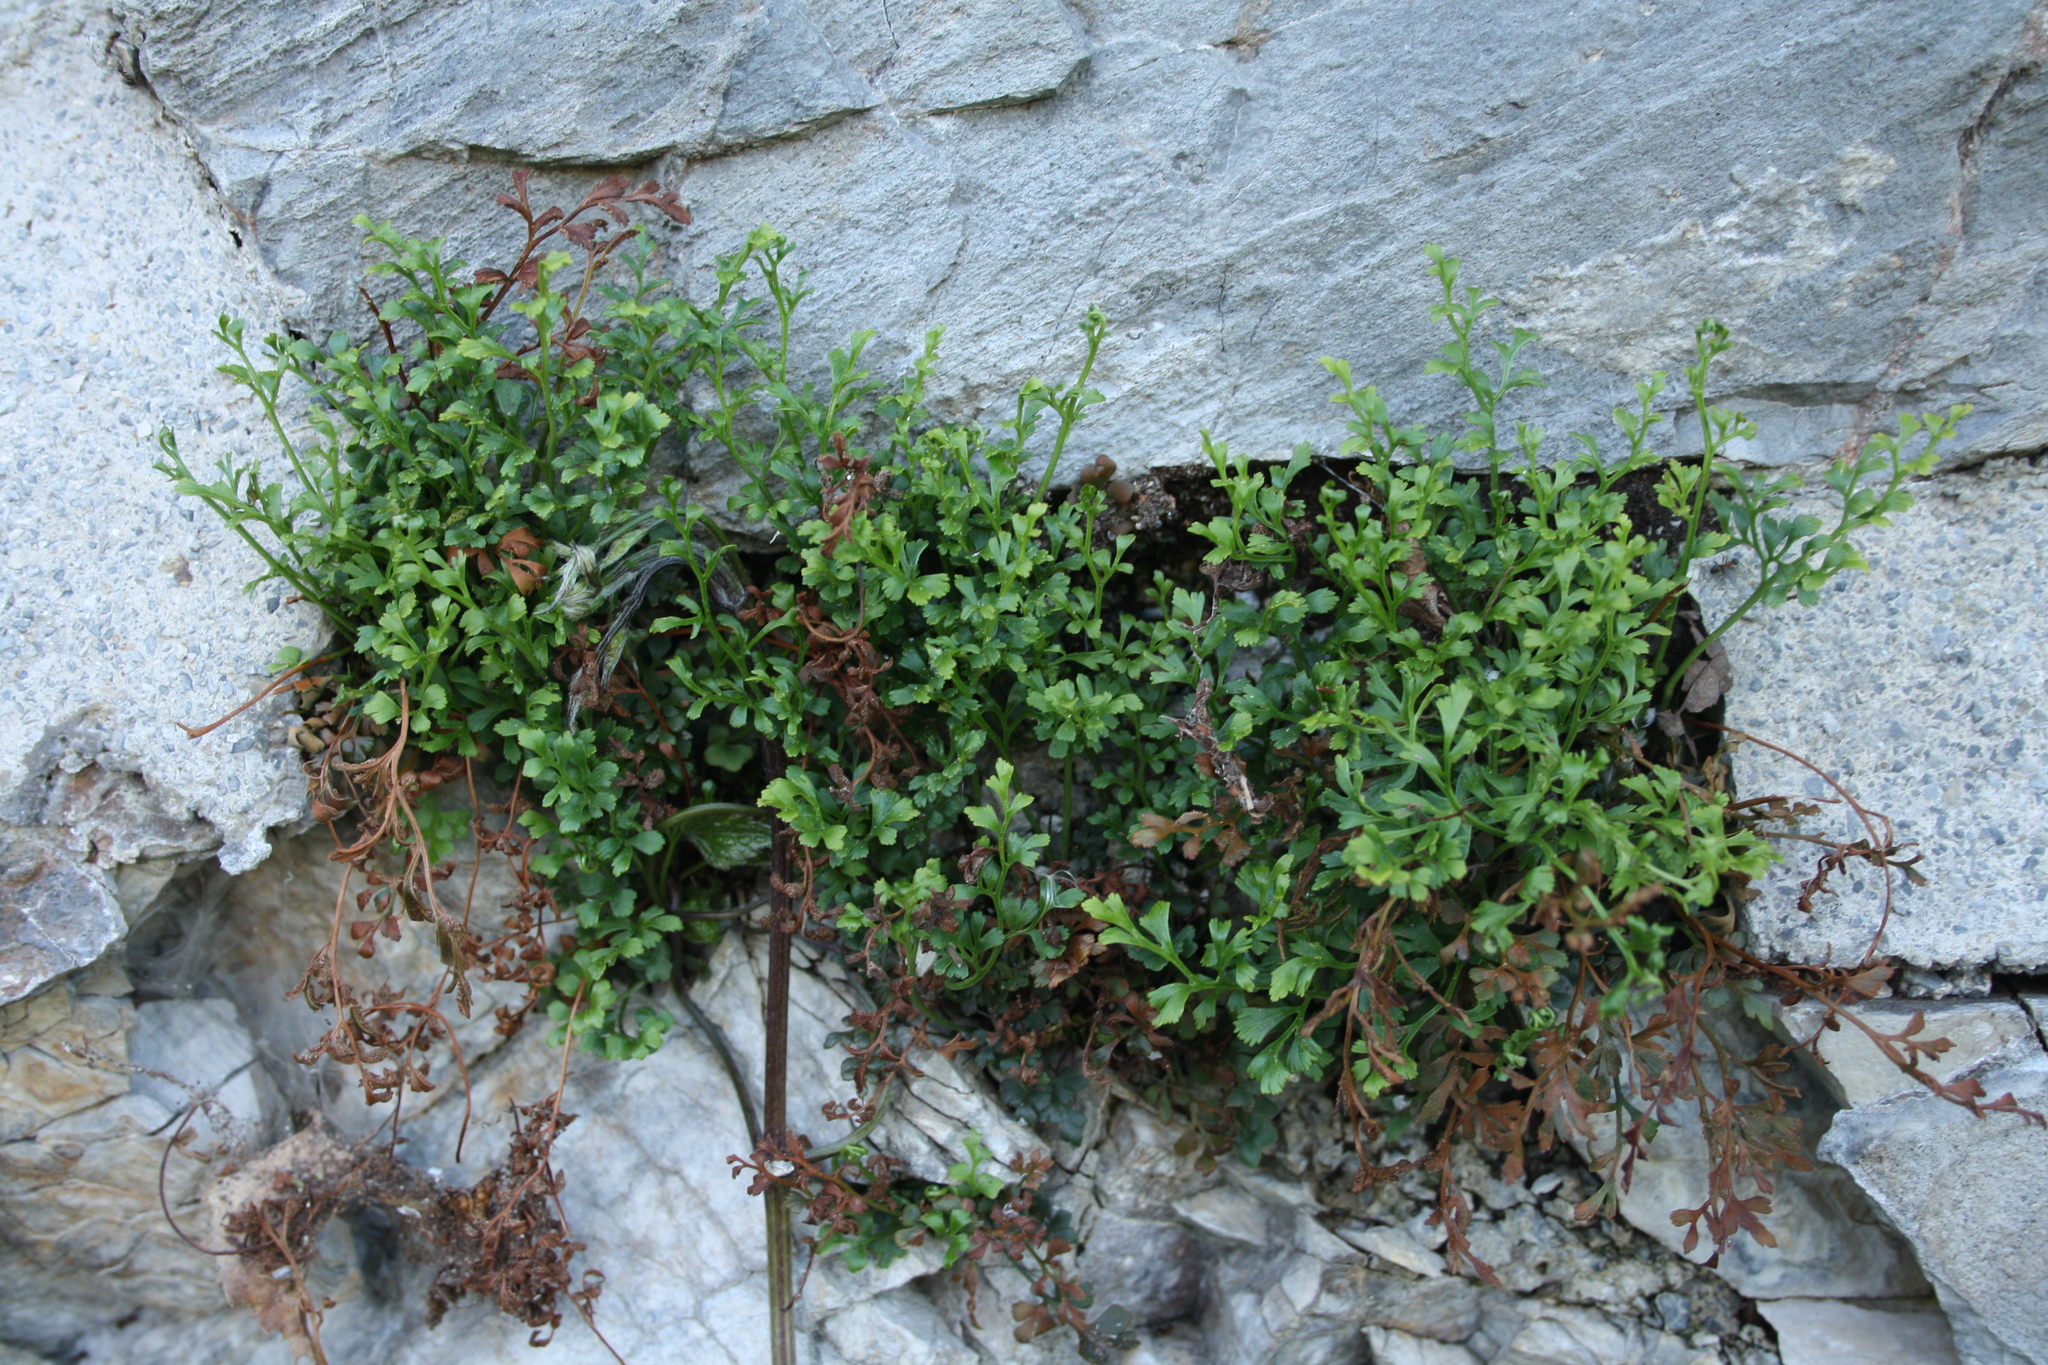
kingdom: Plantae
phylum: Tracheophyta
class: Polypodiopsida
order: Polypodiales
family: Aspleniaceae
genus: Asplenium
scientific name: Asplenium ruta-muraria
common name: Wall-rue
